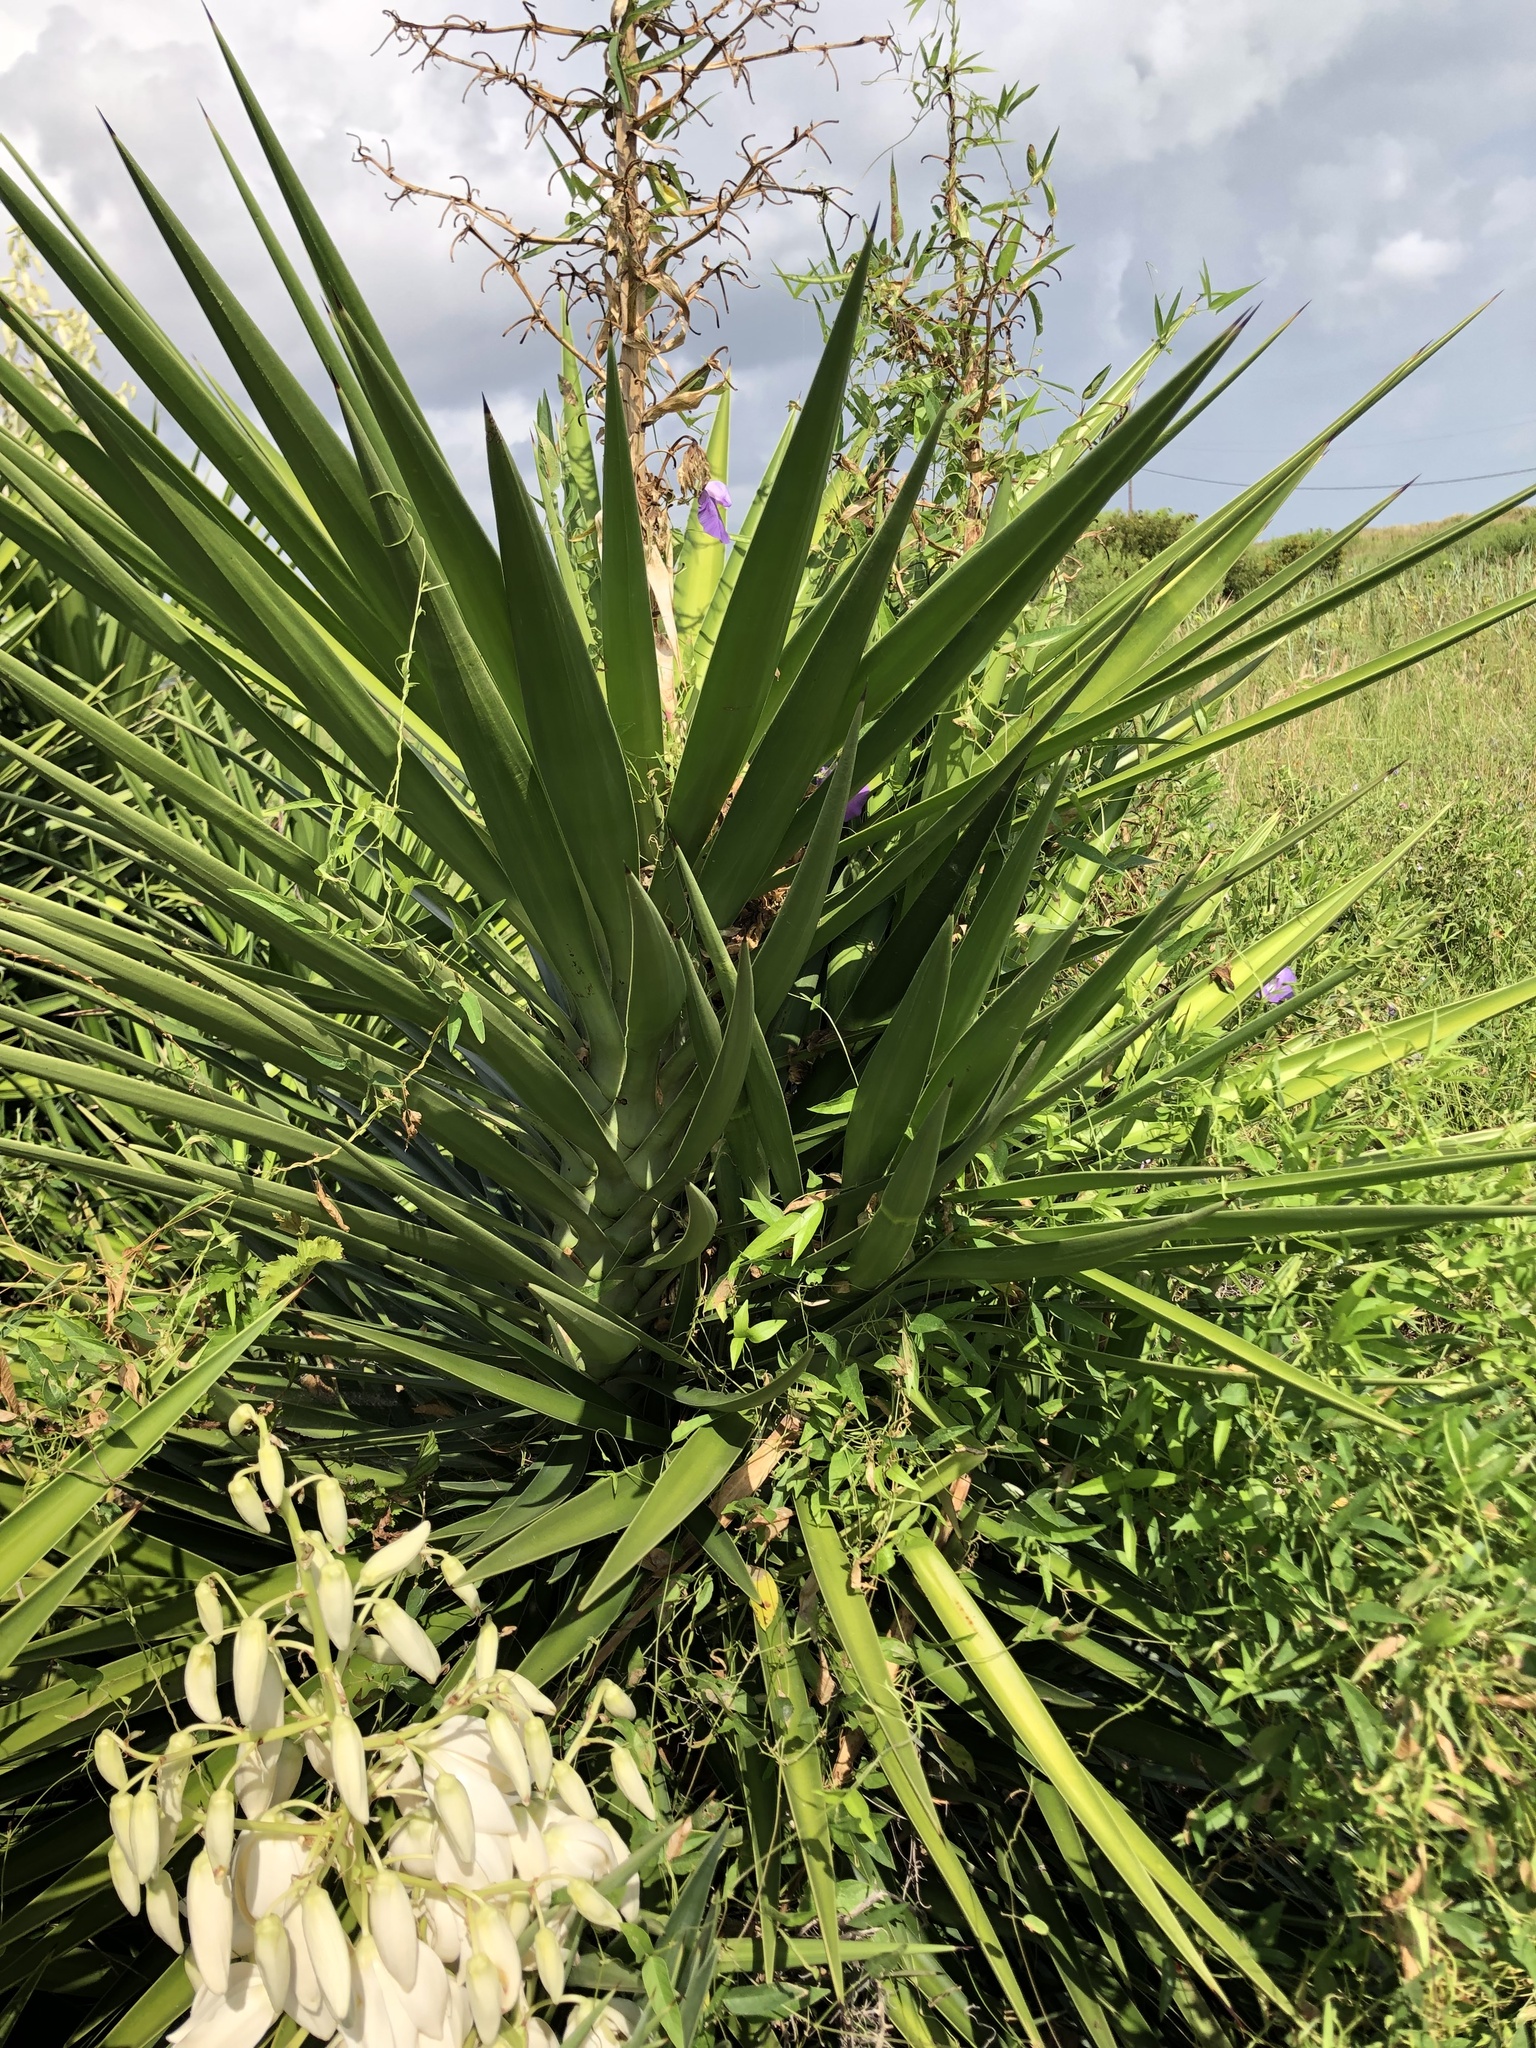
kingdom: Plantae
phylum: Tracheophyta
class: Liliopsida
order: Asparagales
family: Asparagaceae
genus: Yucca
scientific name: Yucca aloifolia
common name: Aloe yucca
